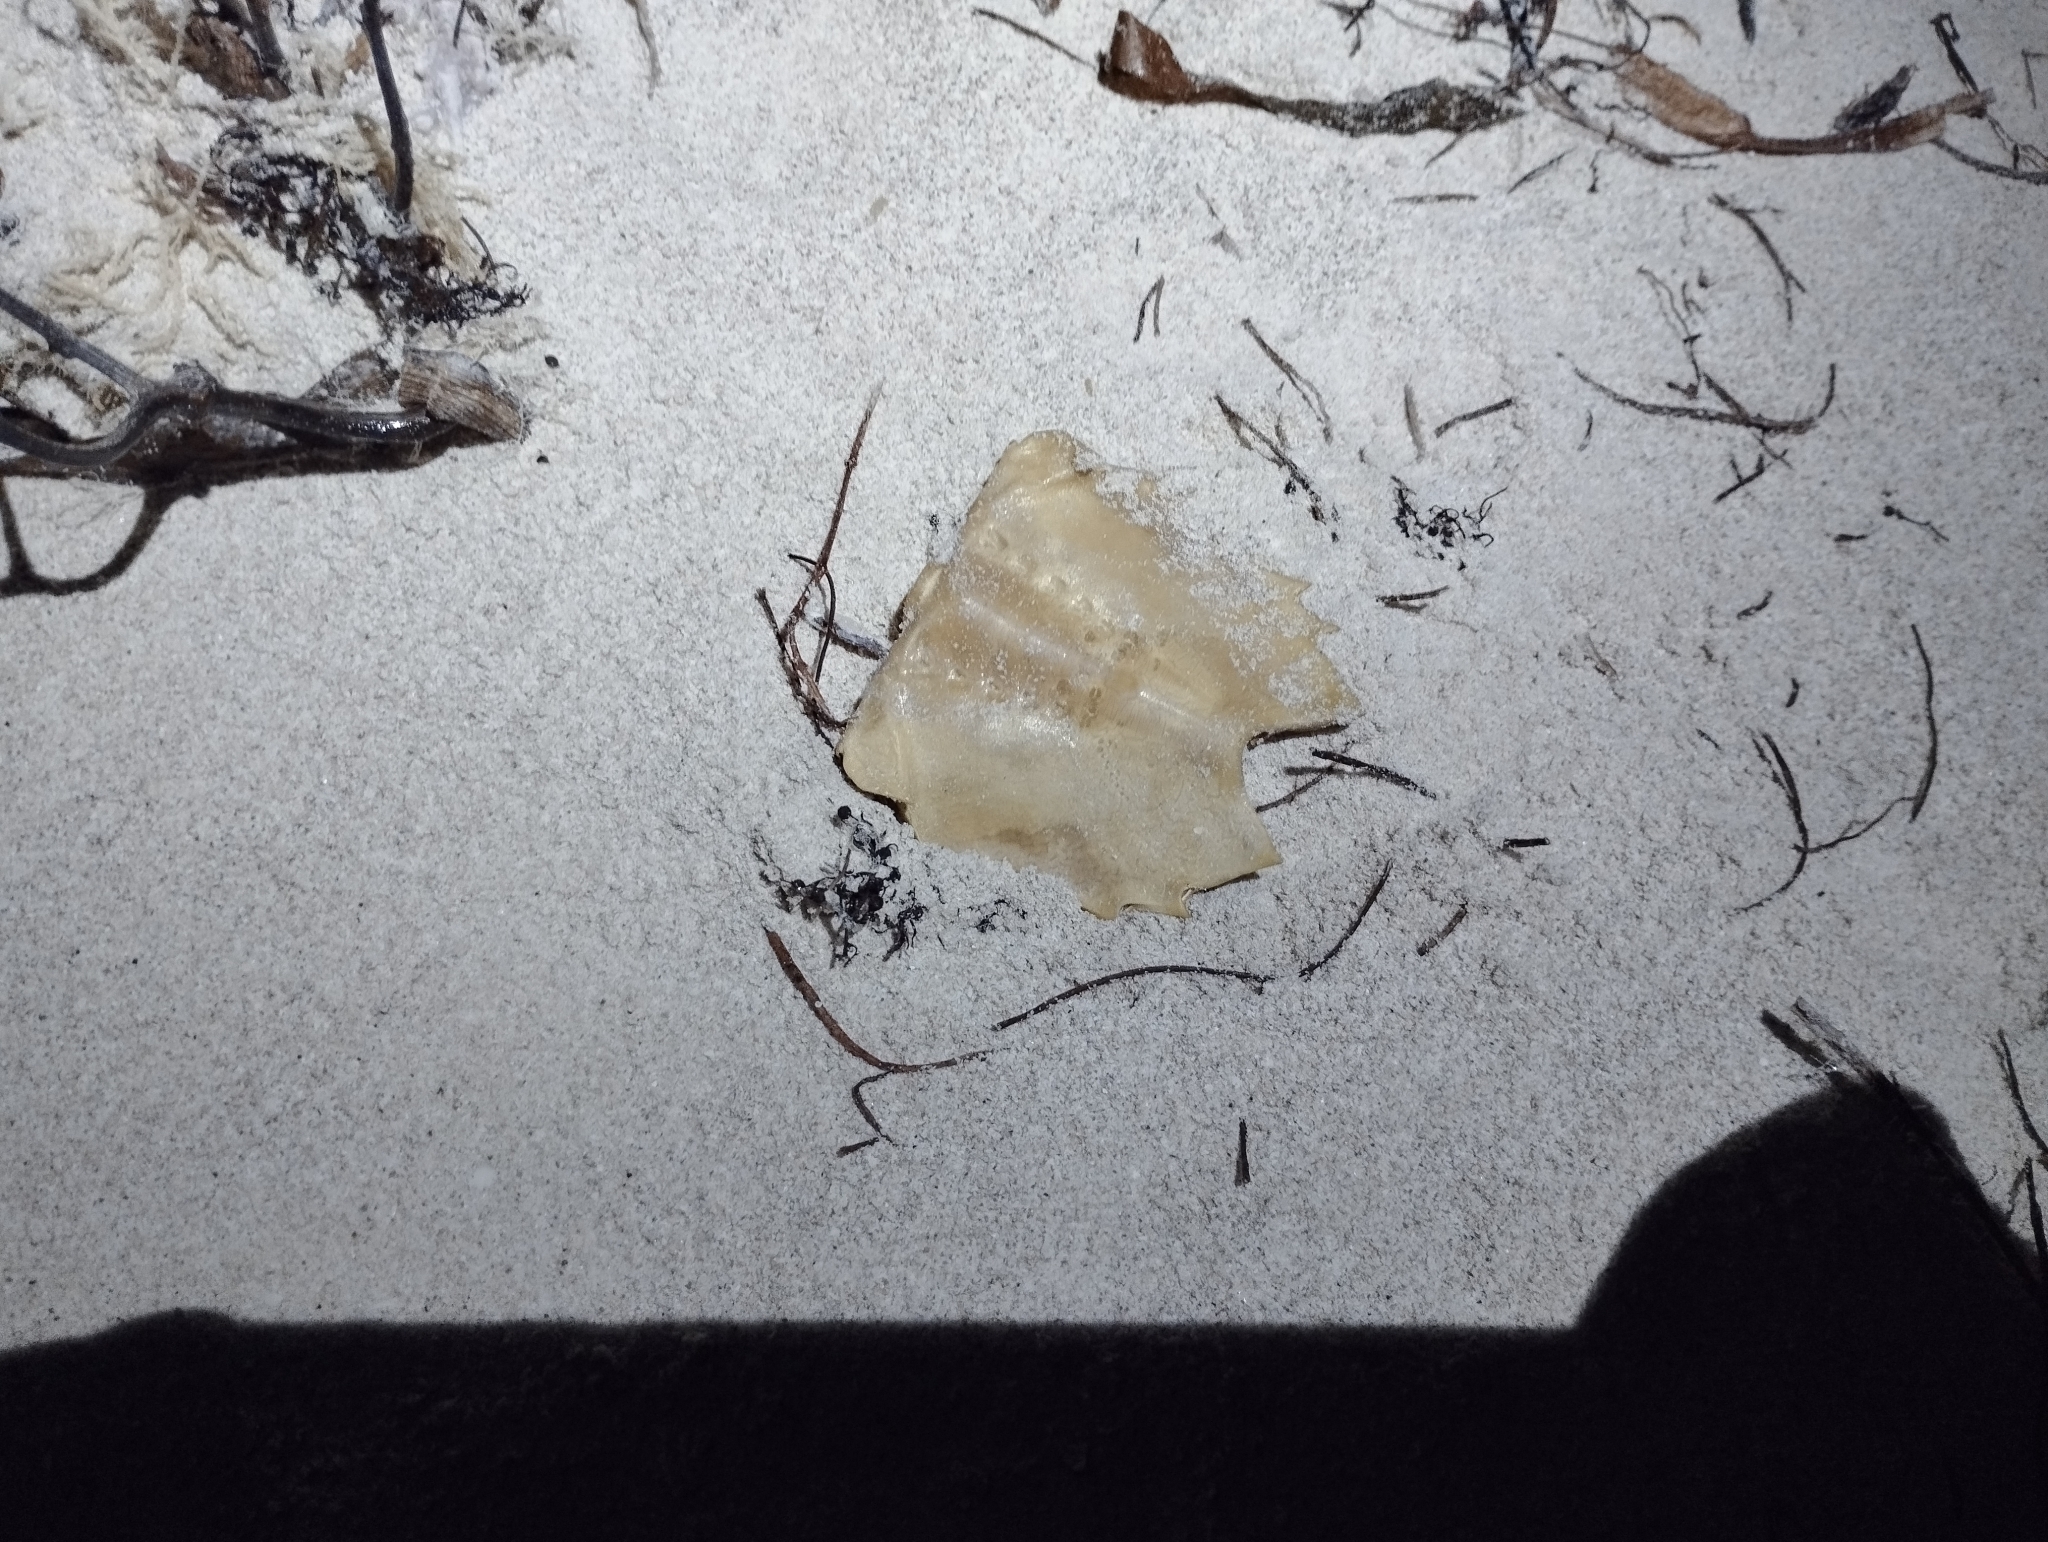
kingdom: Animalia
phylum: Arthropoda
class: Merostomata
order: Xiphosurida
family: Limulidae
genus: Limulus
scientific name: Limulus polyphemus
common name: Horseshoe crab
